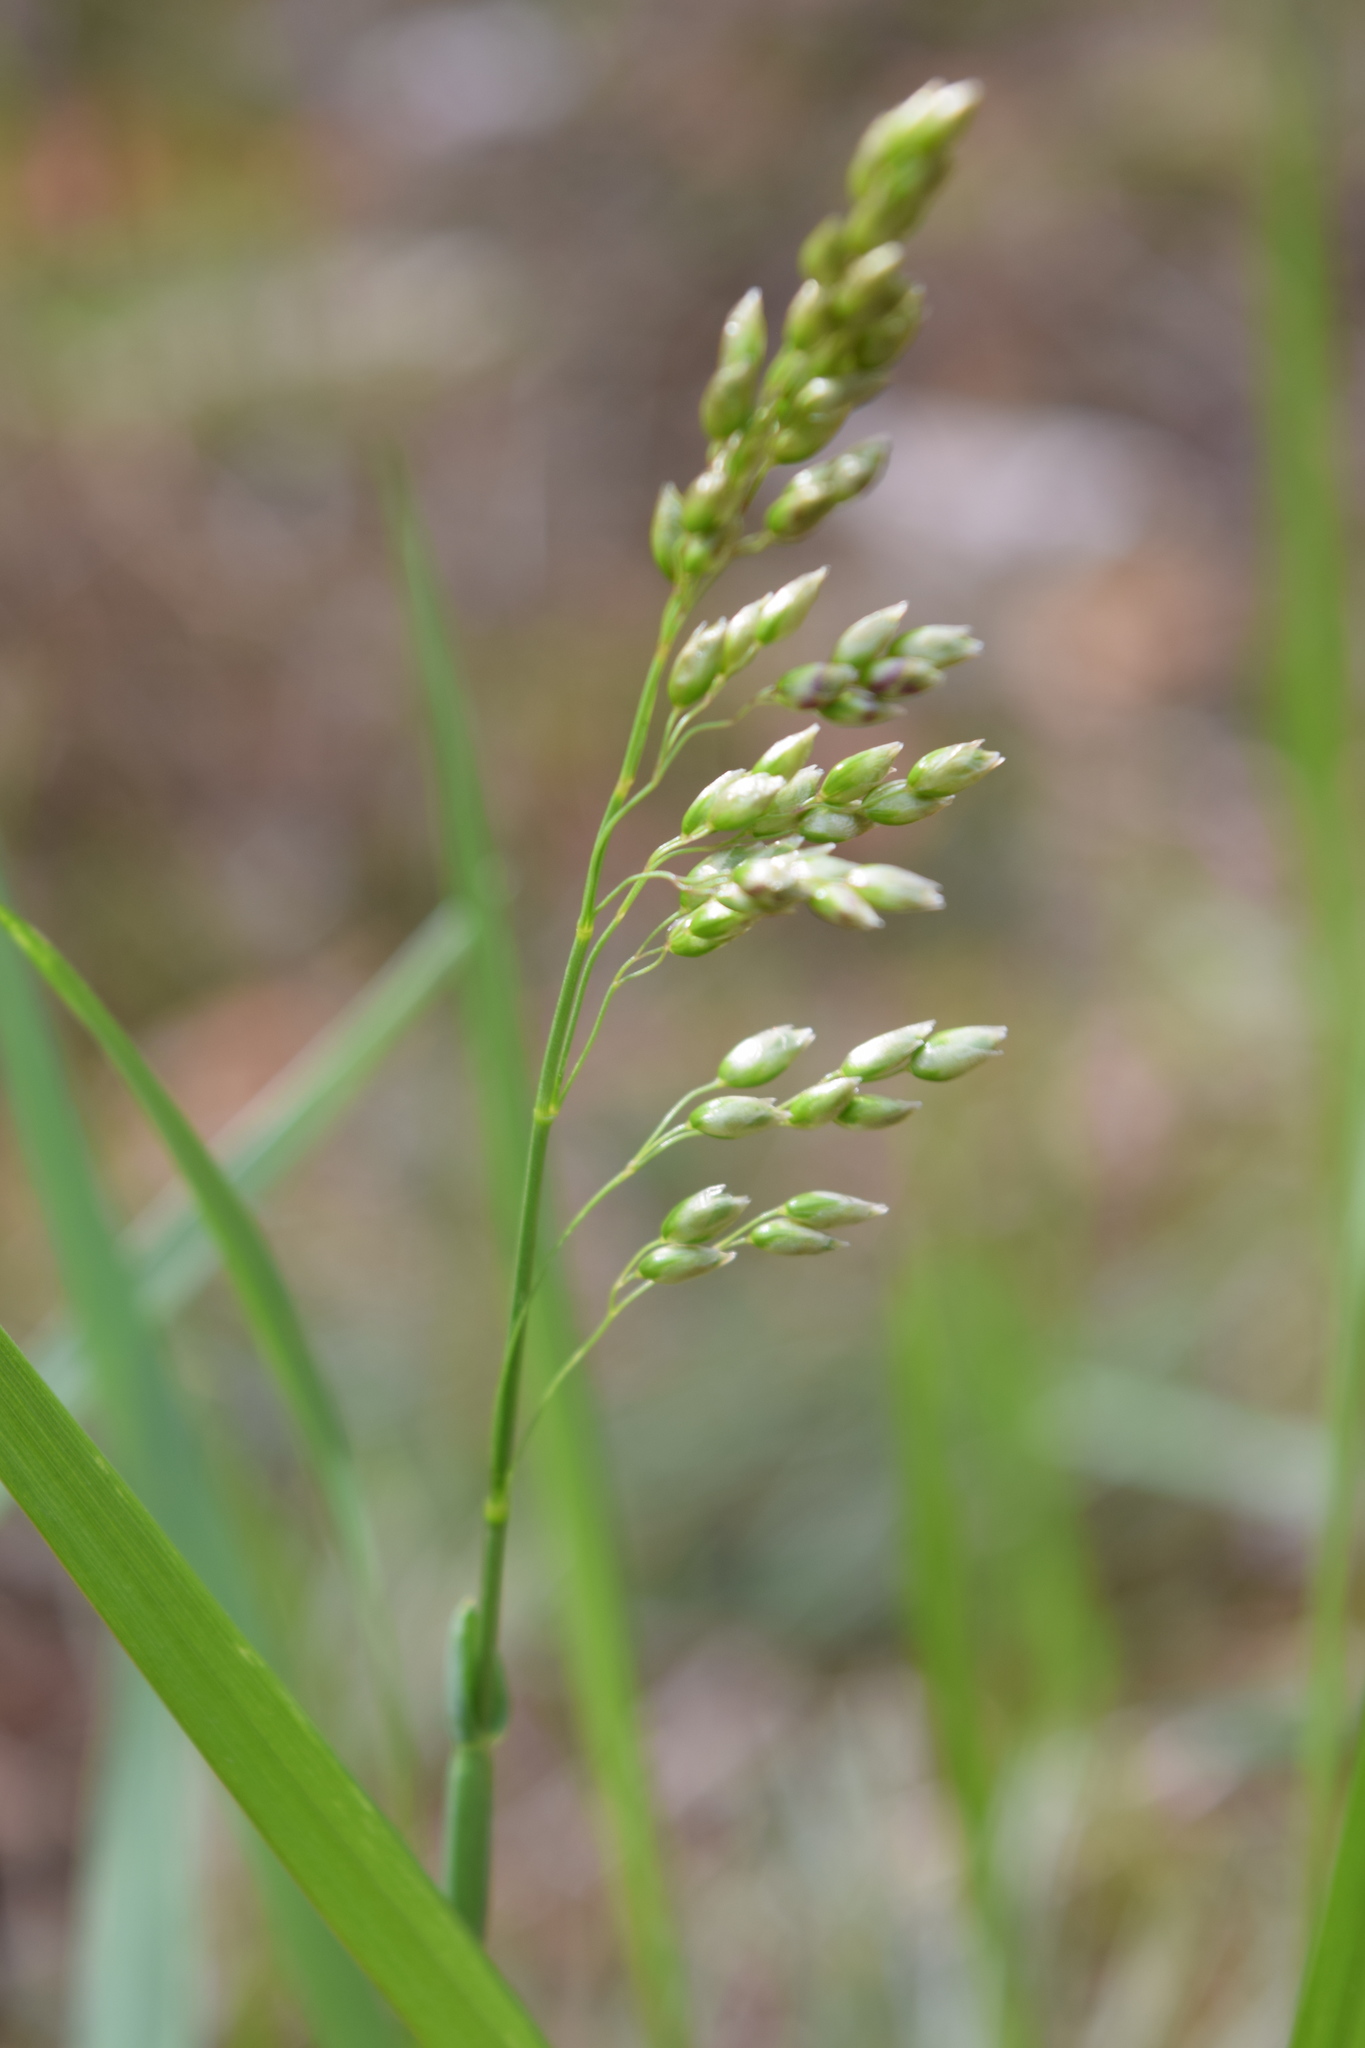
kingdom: Plantae
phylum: Tracheophyta
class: Liliopsida
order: Poales
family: Poaceae
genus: Anthoxanthum
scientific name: Anthoxanthum nitens
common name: Holy grass
